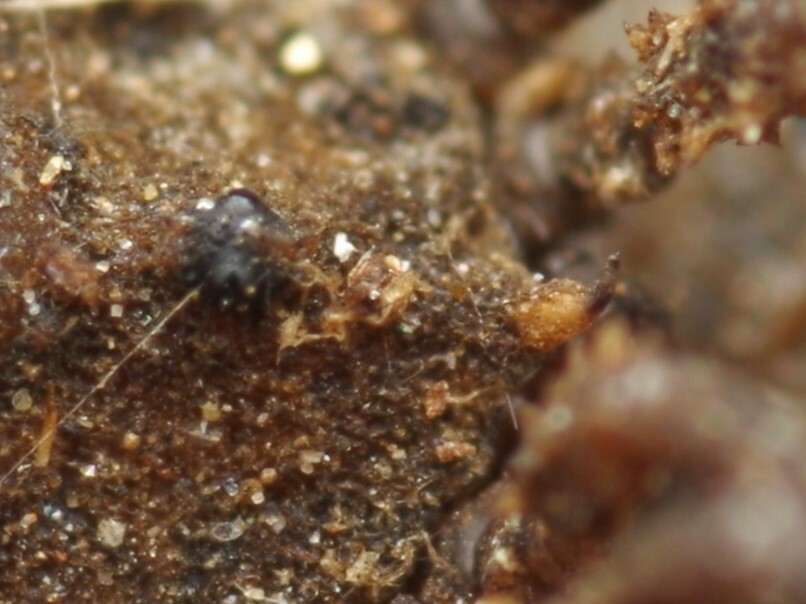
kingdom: Animalia
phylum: Arthropoda
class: Arachnida
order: Opiliones
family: Sclerosomatidae
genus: Homalenotus
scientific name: Homalenotus quadridentatus
